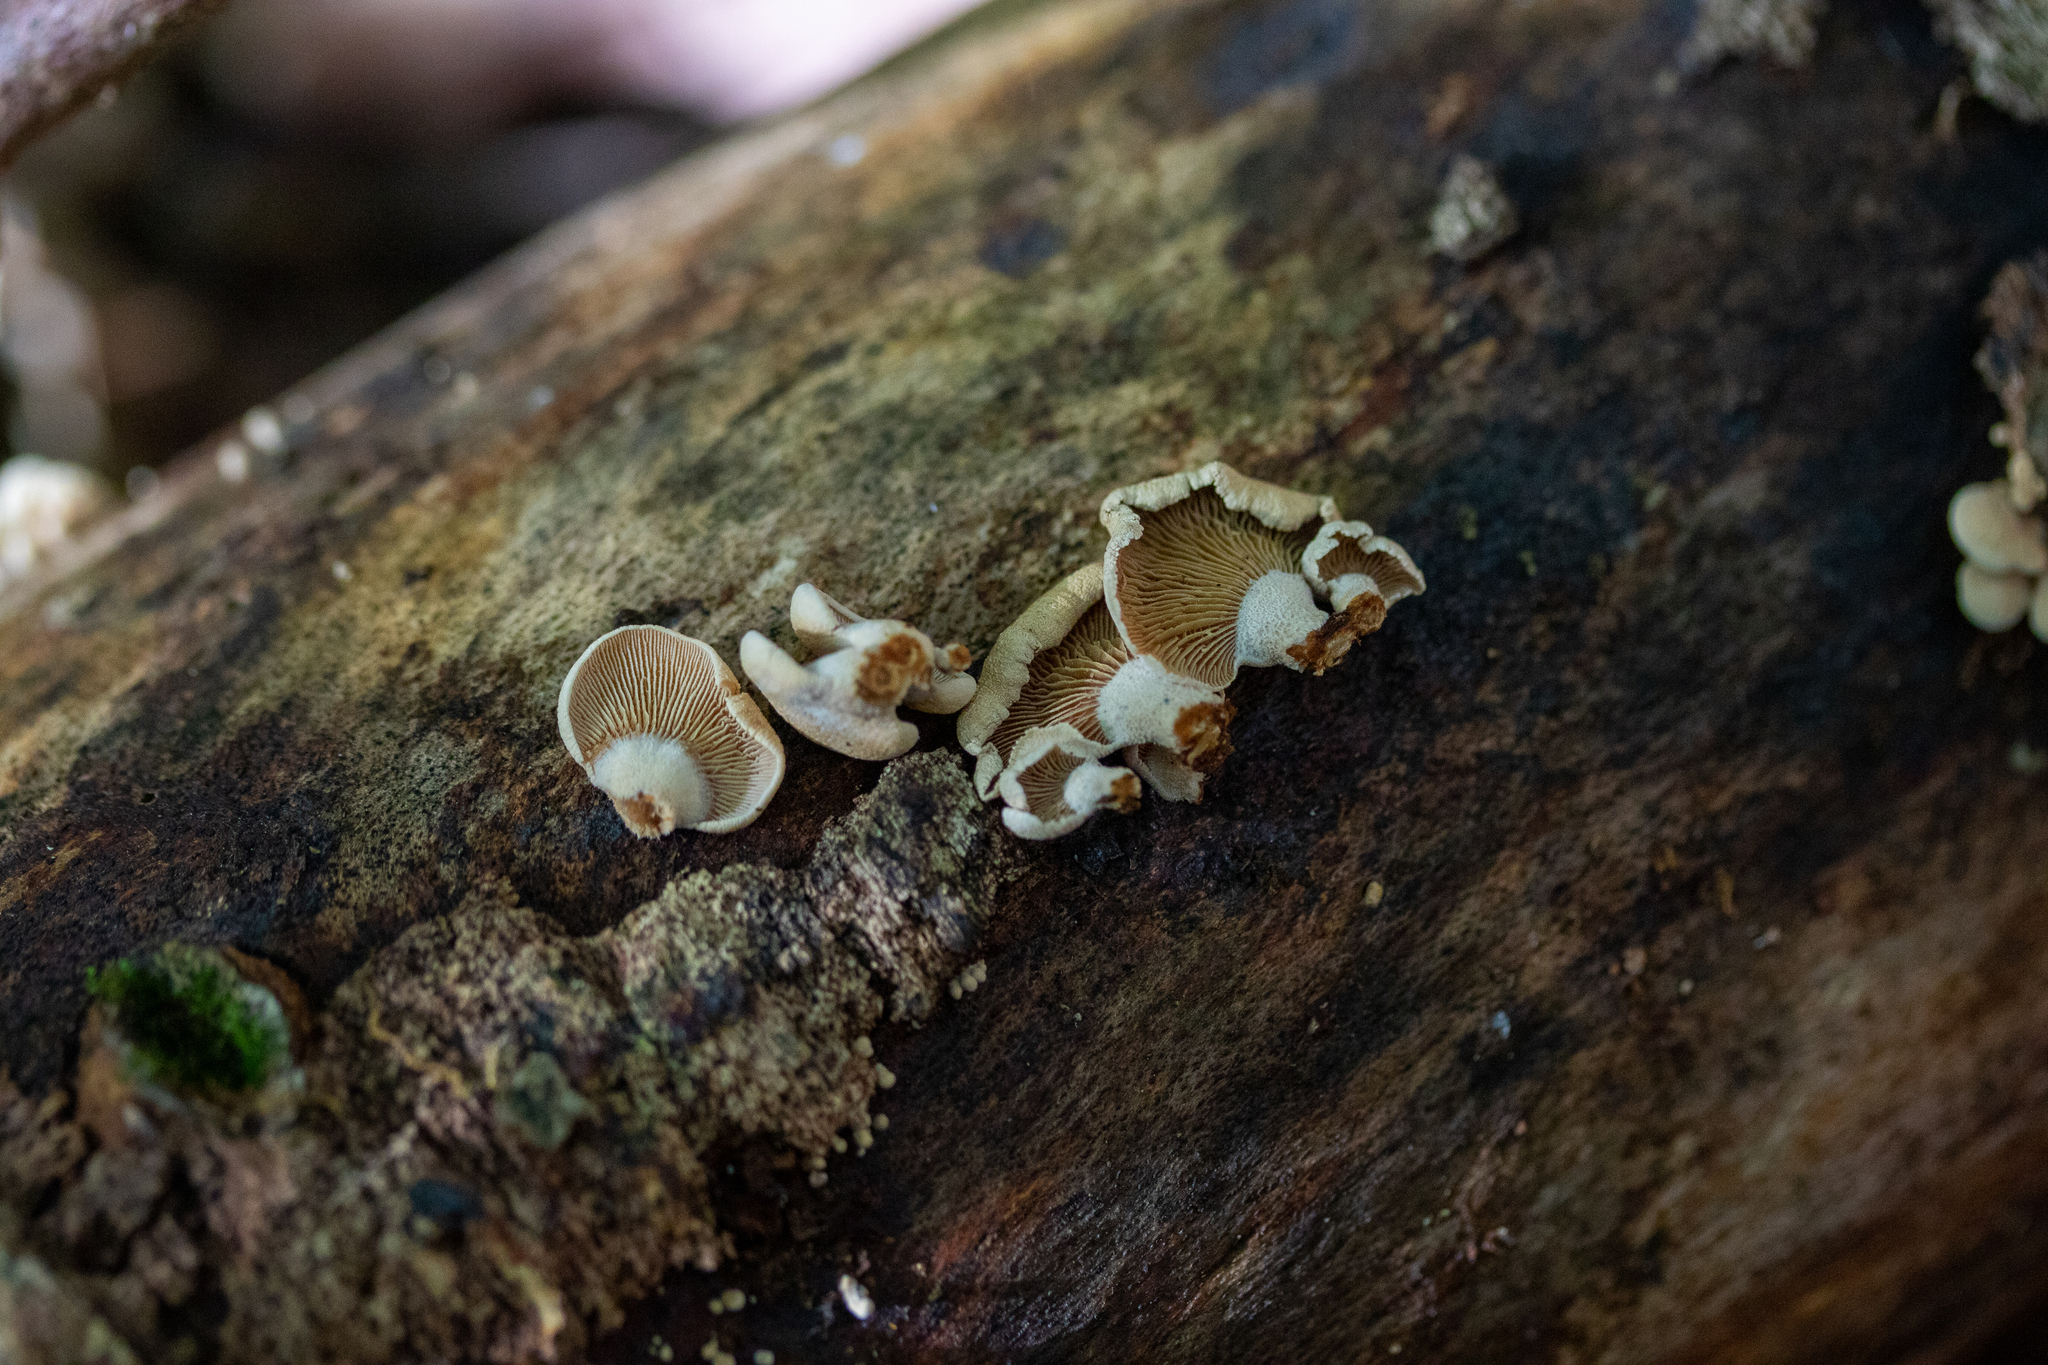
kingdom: Fungi
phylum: Basidiomycota
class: Agaricomycetes
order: Agaricales
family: Mycenaceae
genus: Panellus
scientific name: Panellus stipticus
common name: Bitter oysterling
